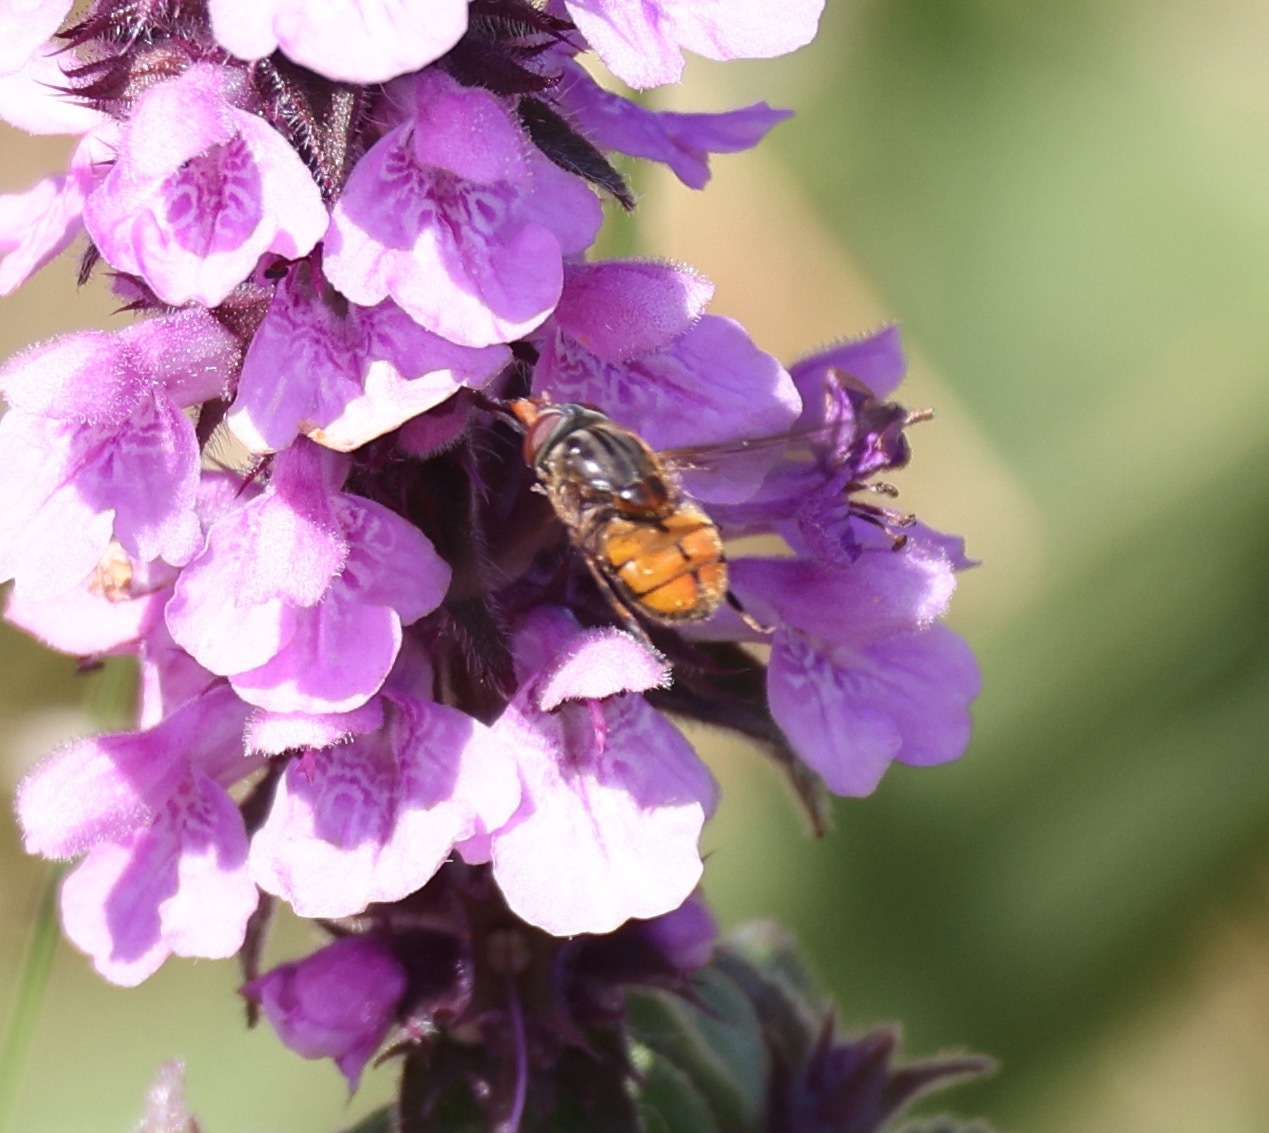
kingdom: Animalia
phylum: Arthropoda
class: Insecta
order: Diptera
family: Syrphidae
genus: Rhingia
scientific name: Rhingia campestris
